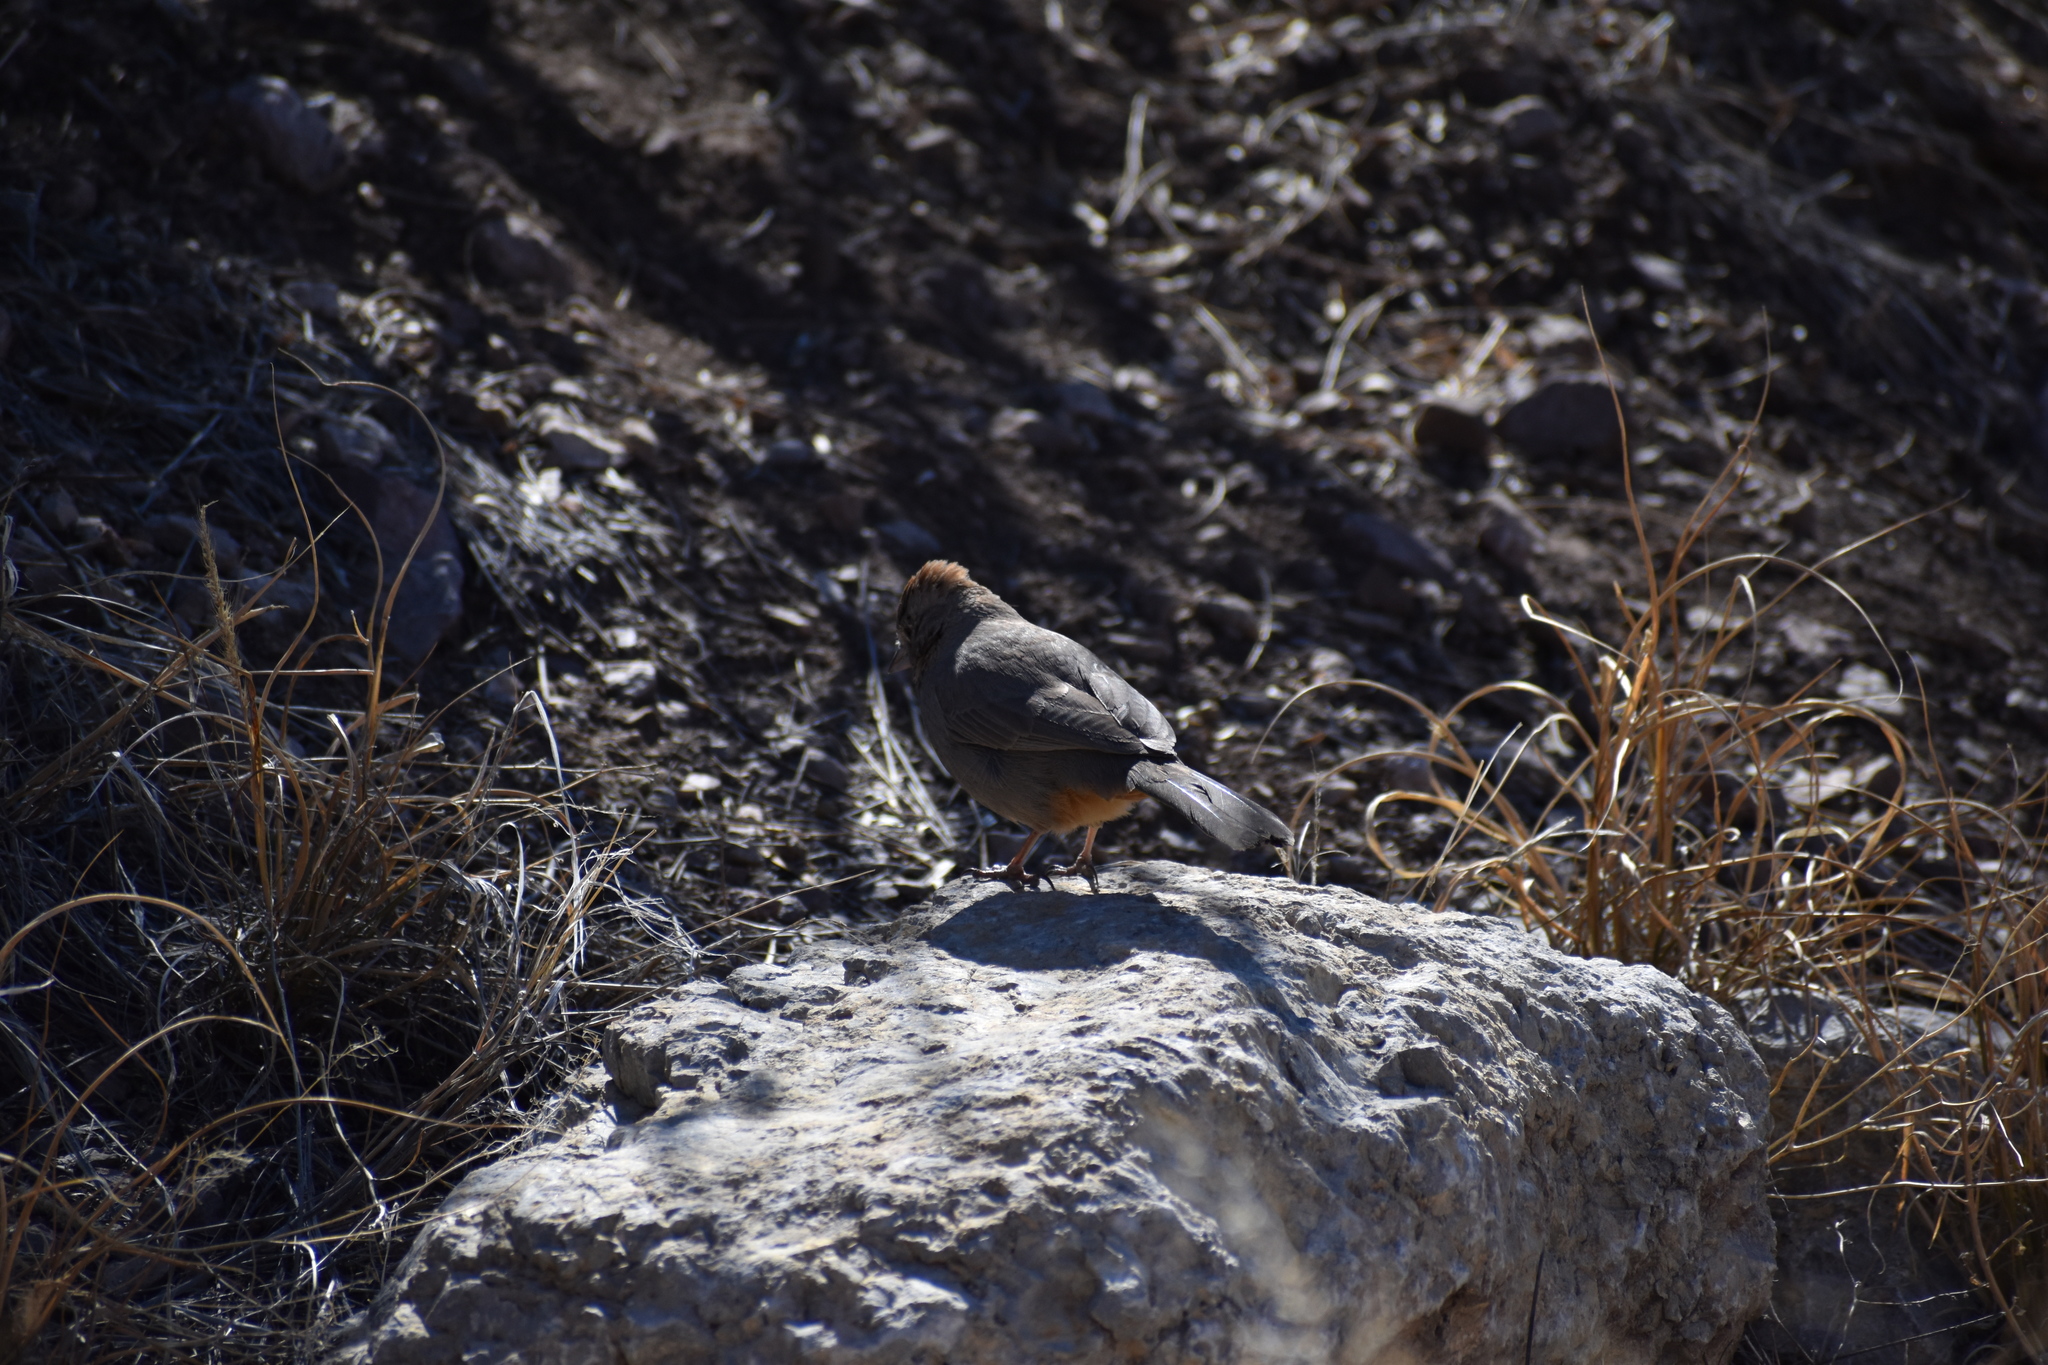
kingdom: Animalia
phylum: Chordata
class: Aves
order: Passeriformes
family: Passerellidae
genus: Melozone
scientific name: Melozone fusca
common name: Canyon towhee
